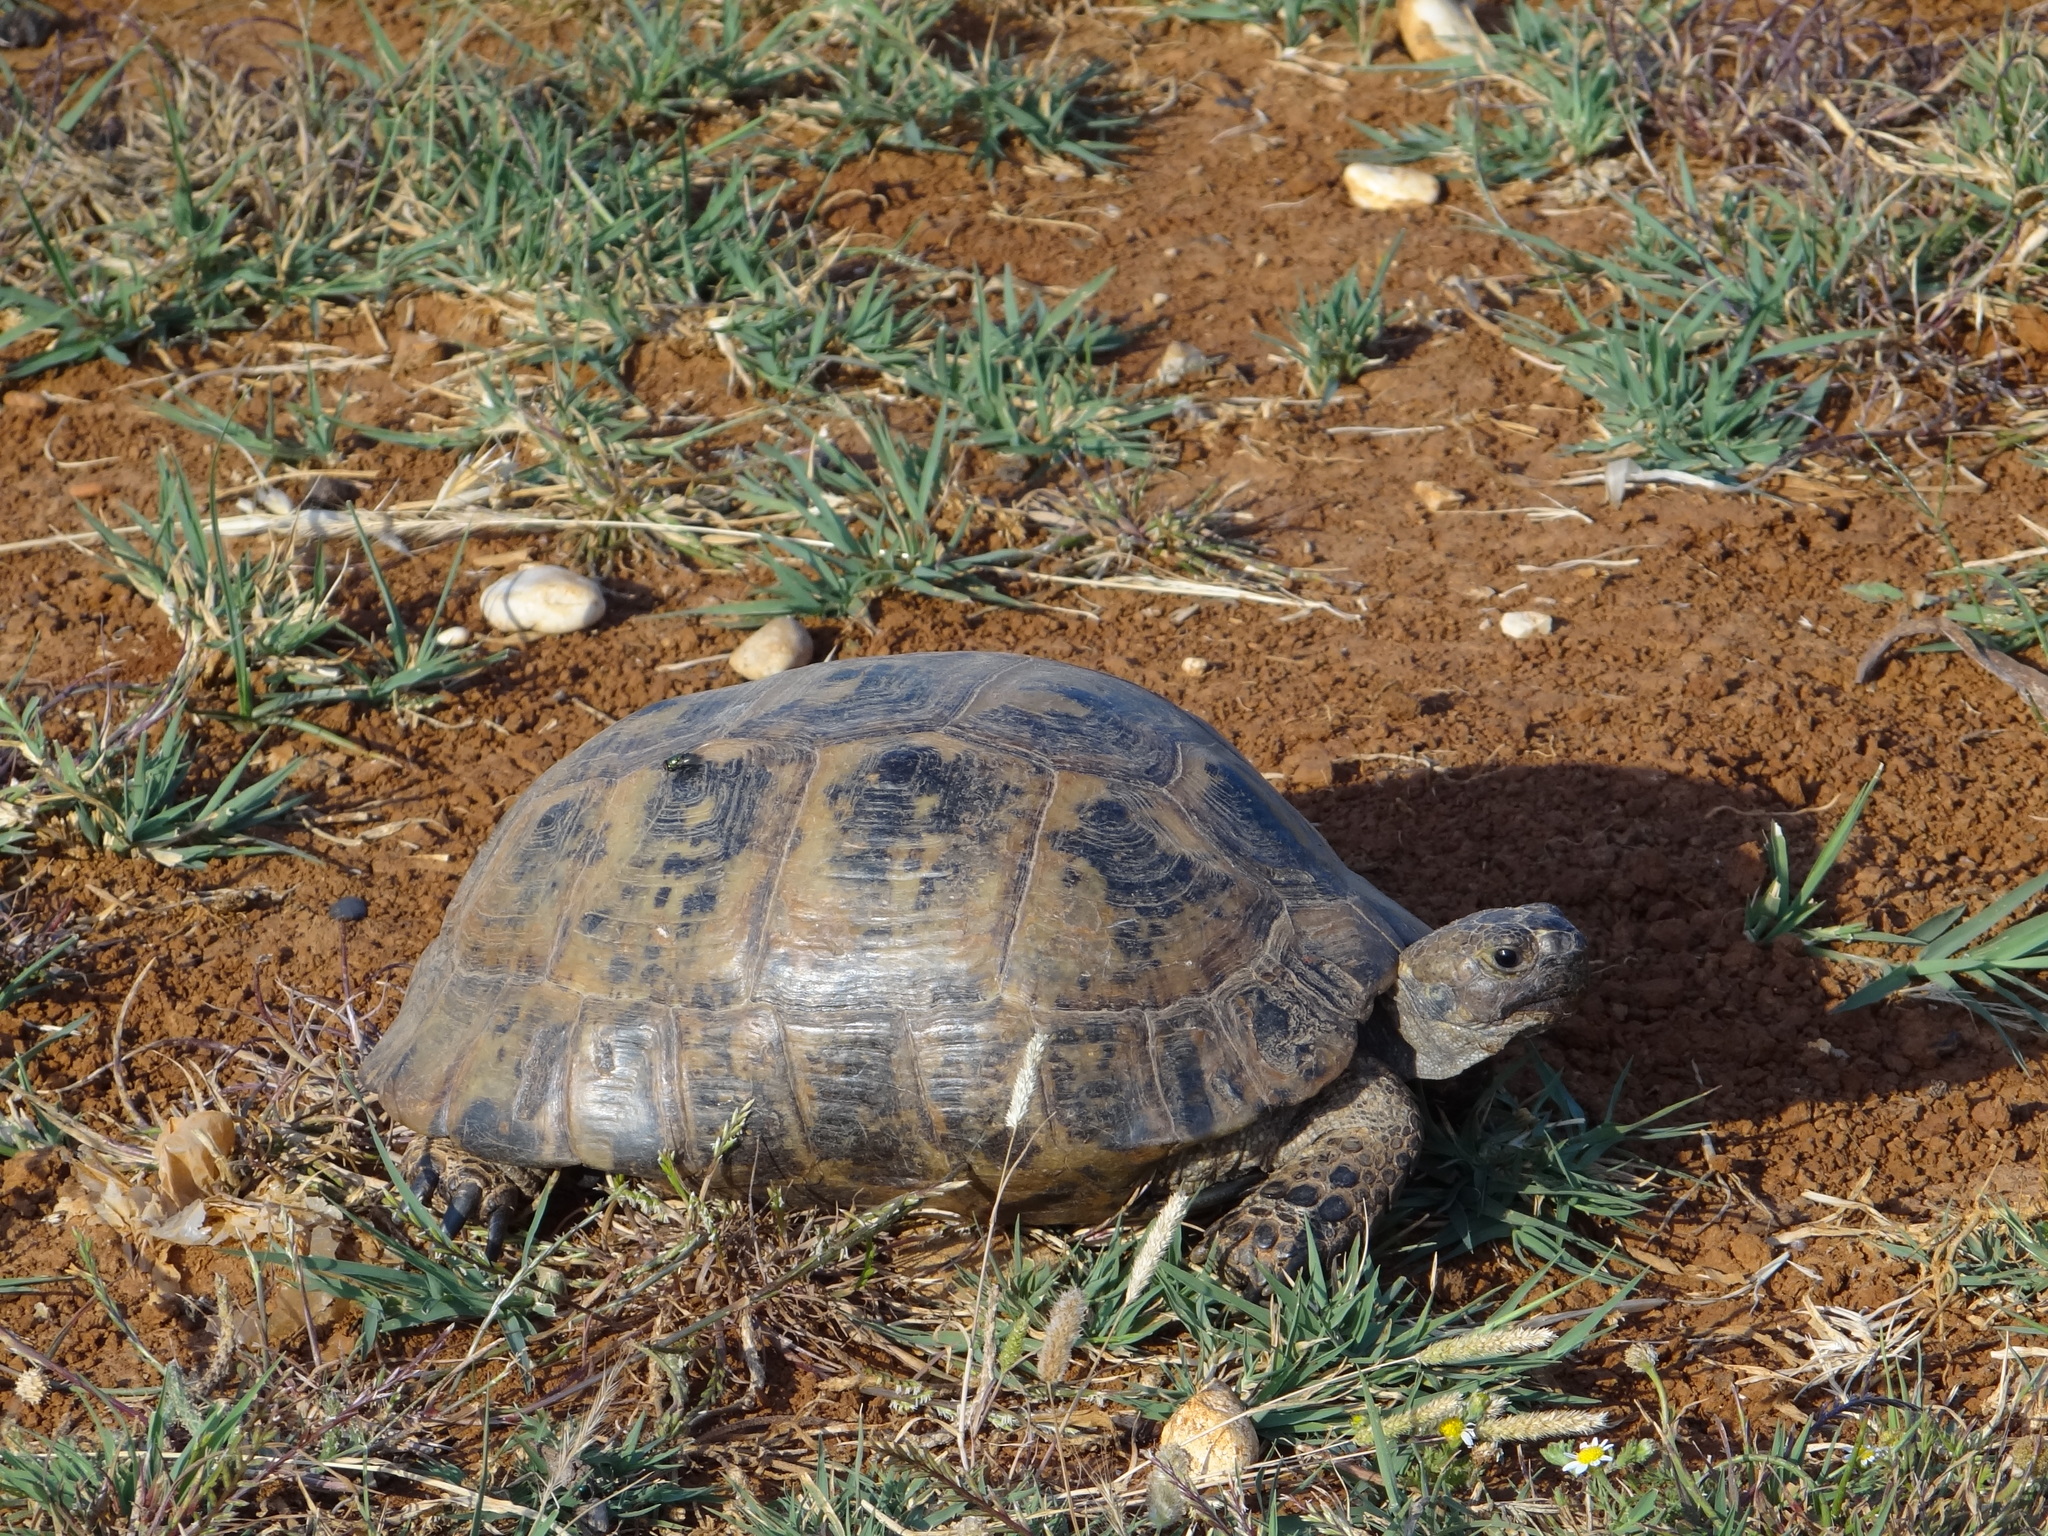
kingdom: Animalia
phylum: Chordata
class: Testudines
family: Testudinidae
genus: Testudo
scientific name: Testudo graeca
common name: Common tortoise
